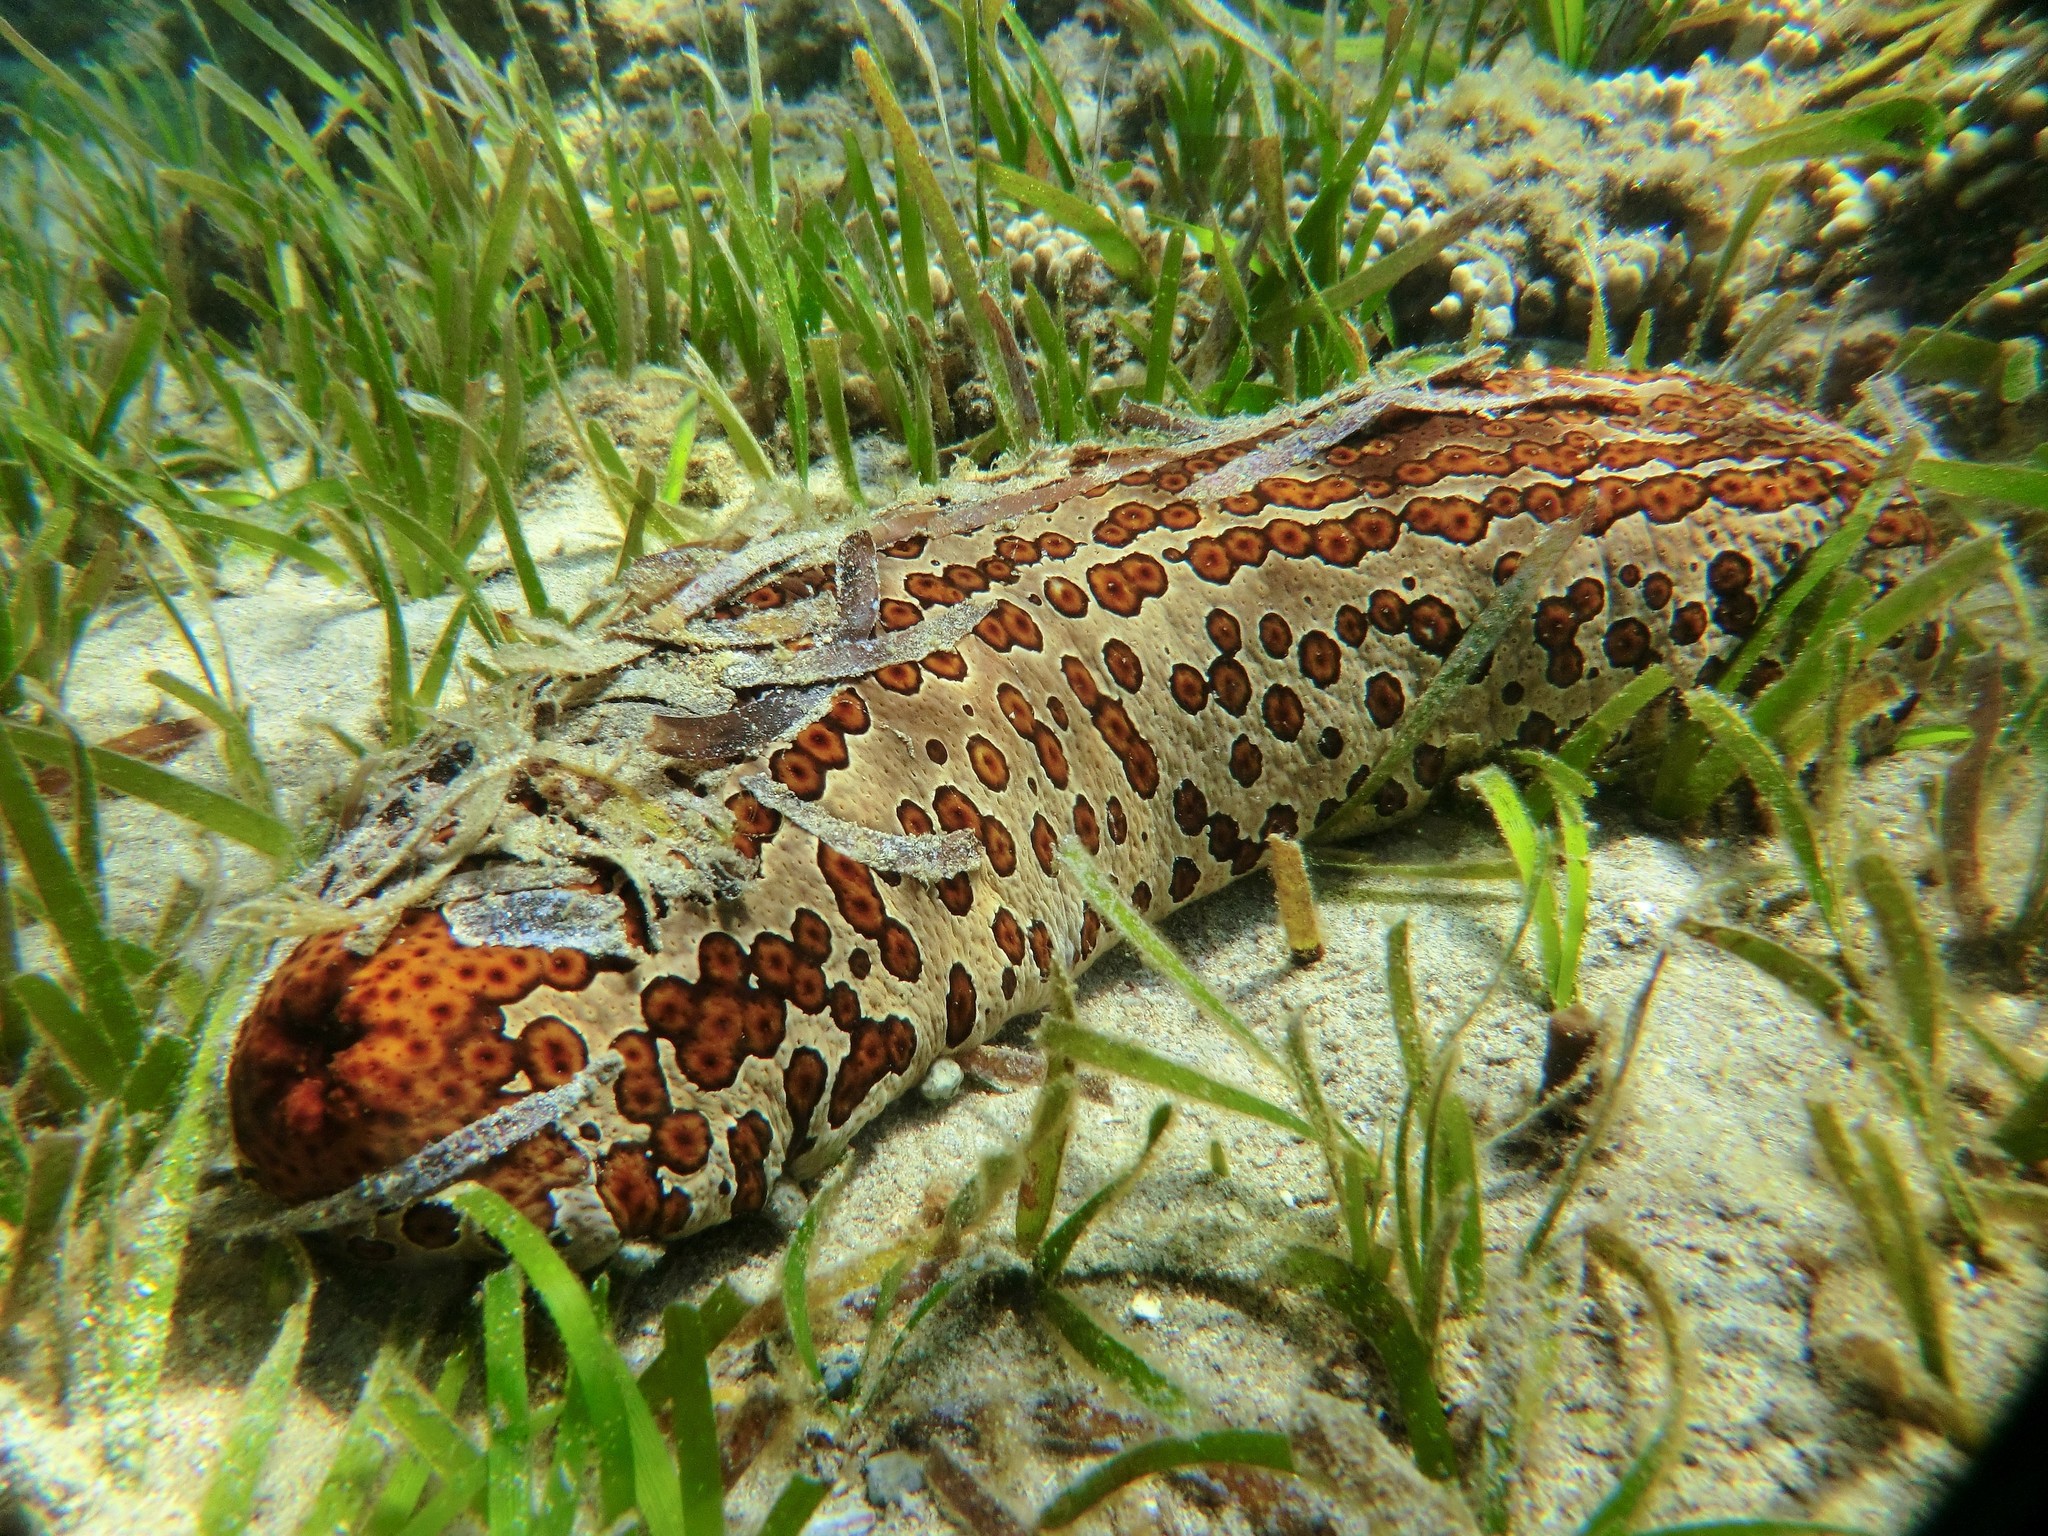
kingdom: Animalia
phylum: Echinodermata
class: Holothuroidea
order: Holothuriida
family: Holothuriidae
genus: Bohadschia
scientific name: Bohadschia argus
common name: Leopardfish
